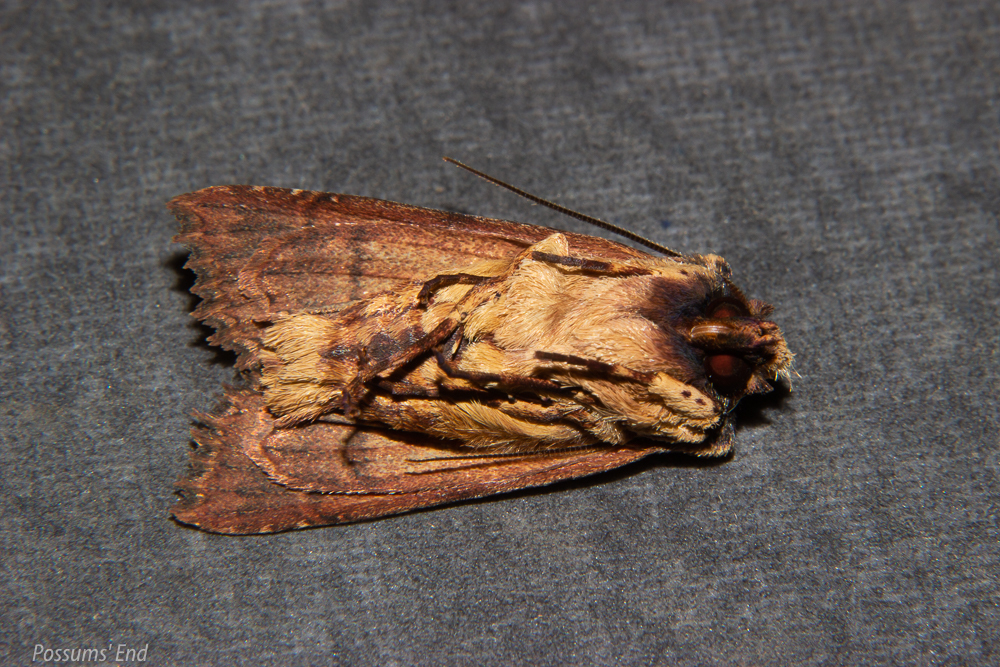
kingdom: Animalia
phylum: Arthropoda
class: Insecta
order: Lepidoptera
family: Noctuidae
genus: Meterana
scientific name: Meterana alcyone
